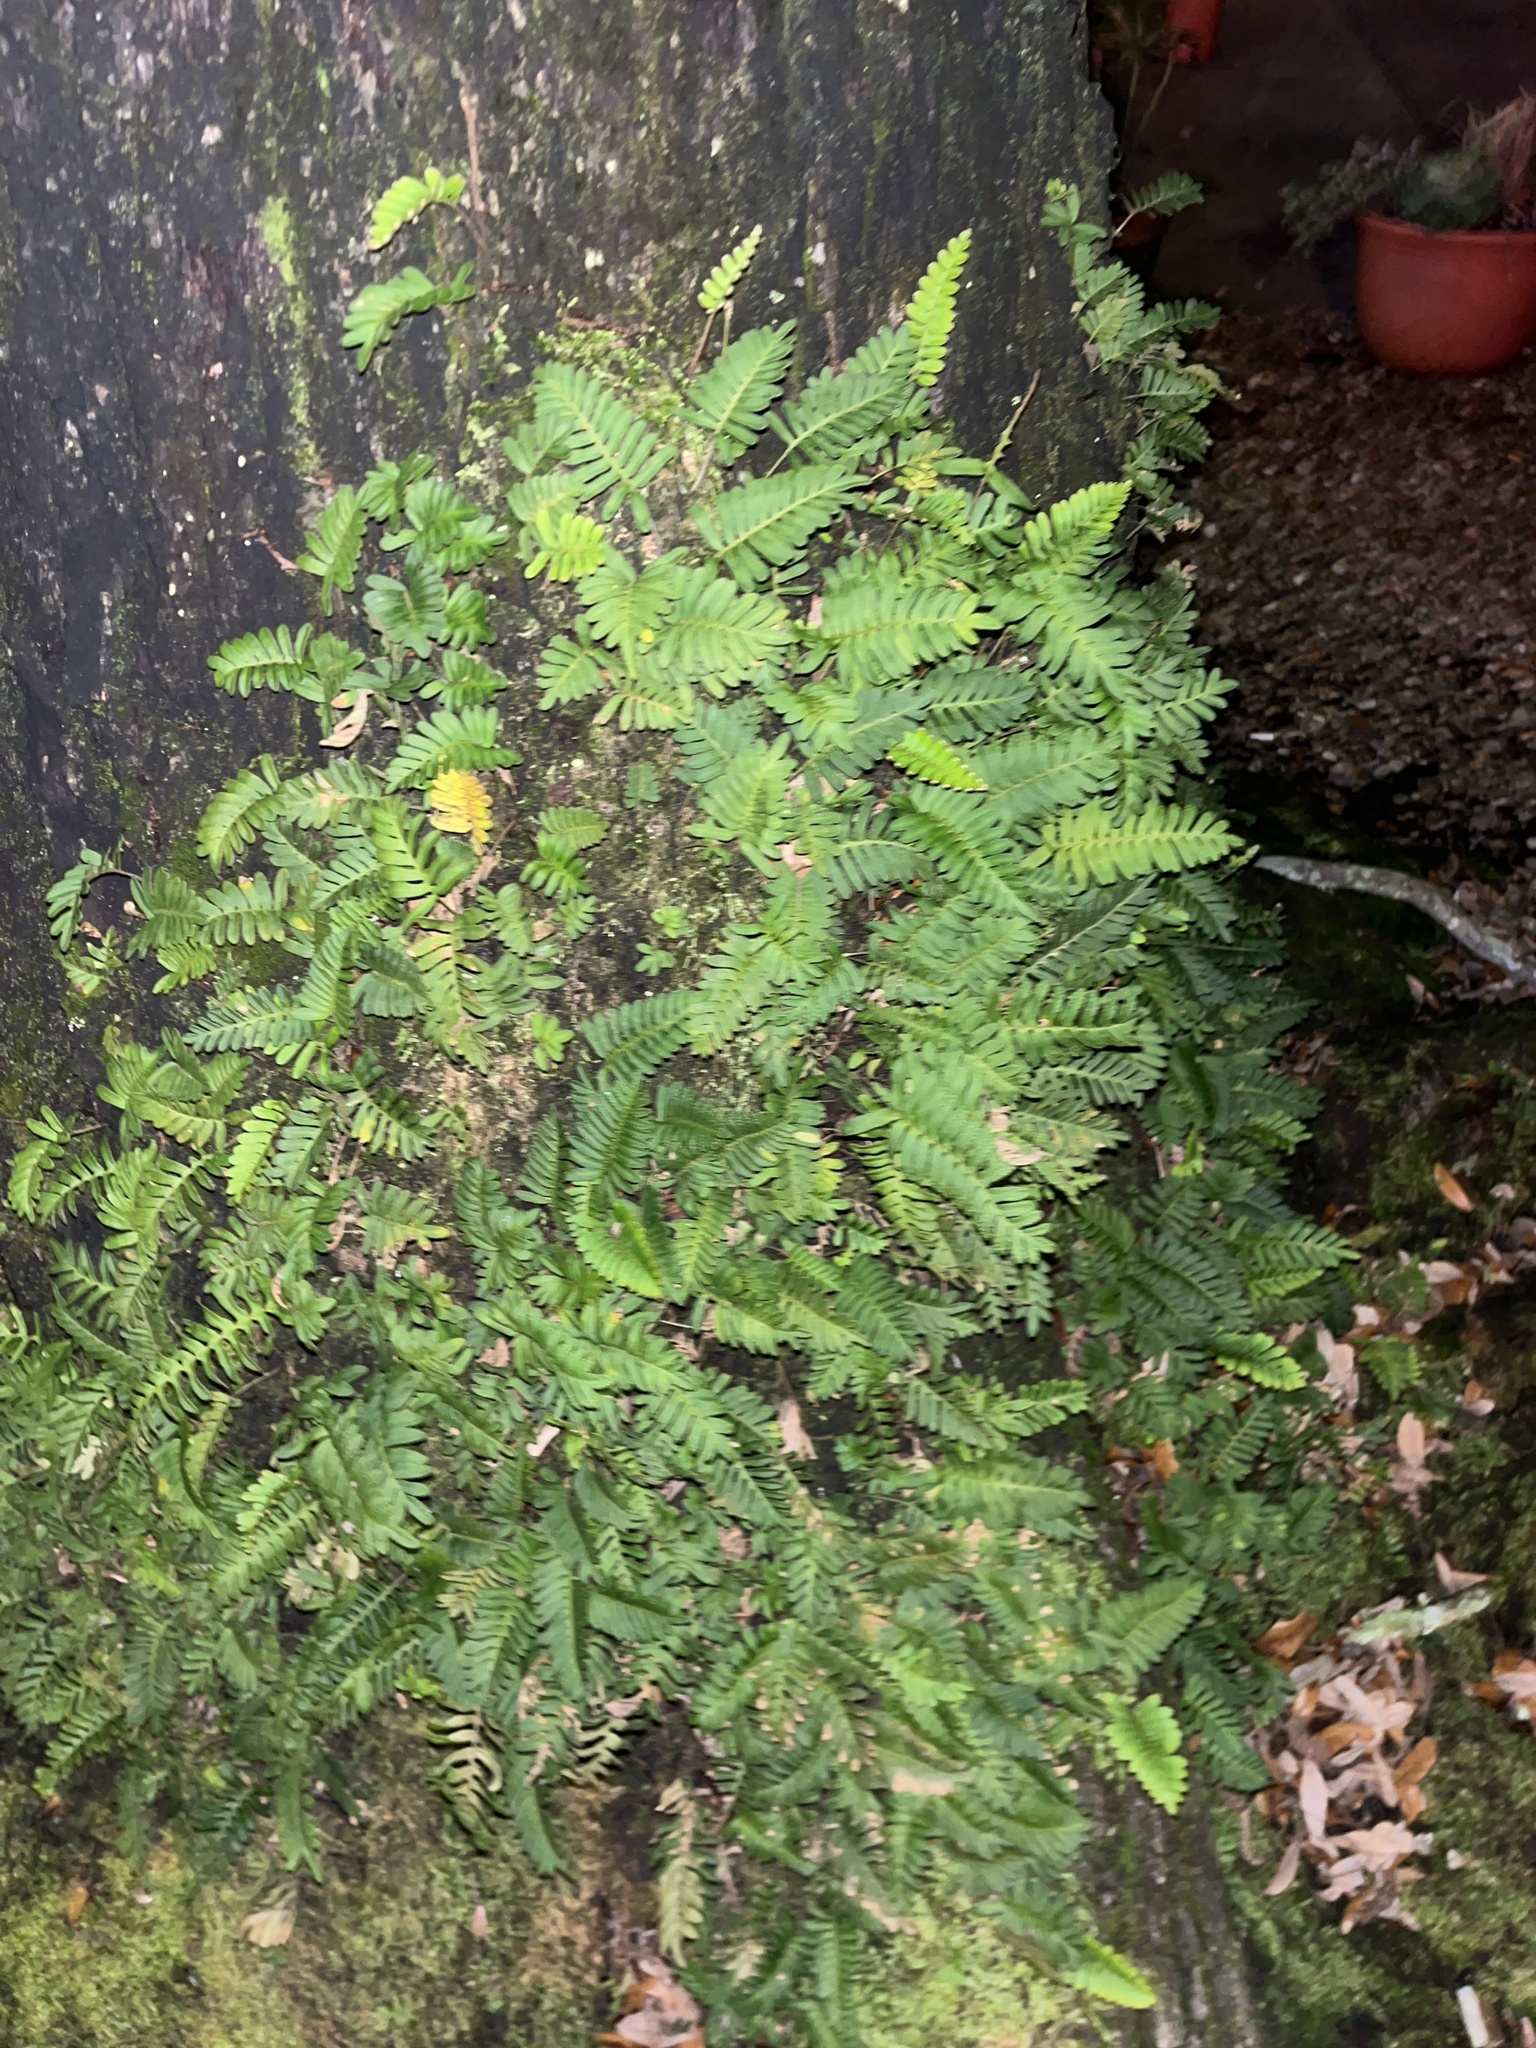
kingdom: Plantae
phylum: Tracheophyta
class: Polypodiopsida
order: Polypodiales
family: Polypodiaceae
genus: Pleopeltis
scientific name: Pleopeltis michauxiana
